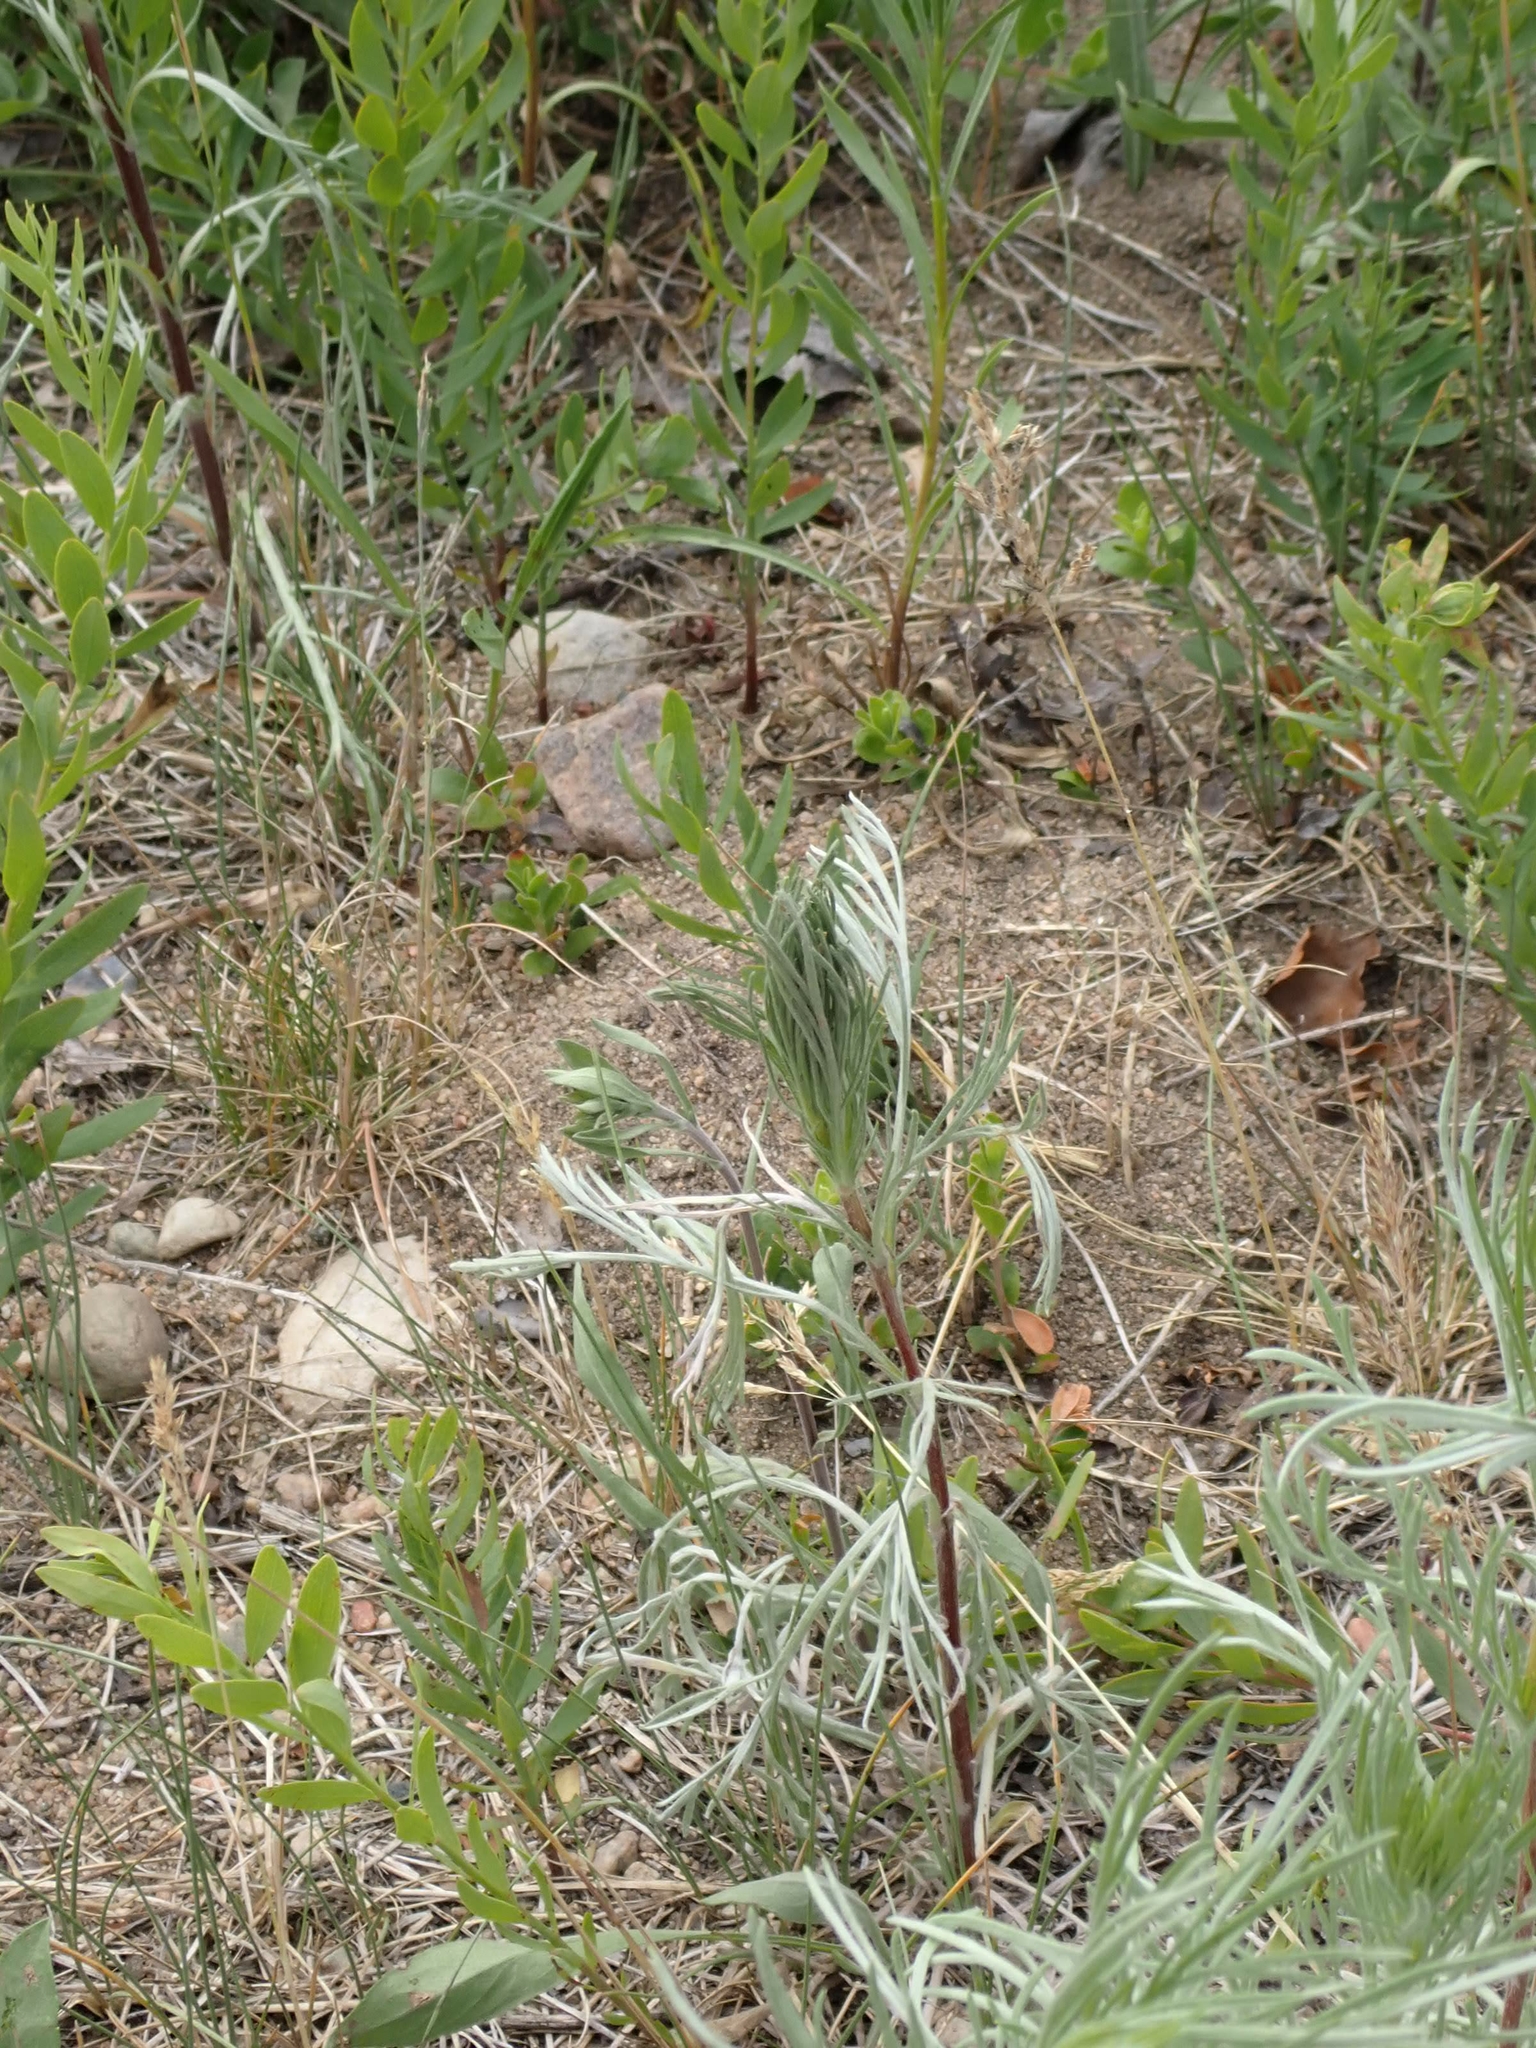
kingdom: Plantae
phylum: Tracheophyta
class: Magnoliopsida
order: Asterales
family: Asteraceae
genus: Artemisia
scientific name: Artemisia campestris
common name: Field wormwood
